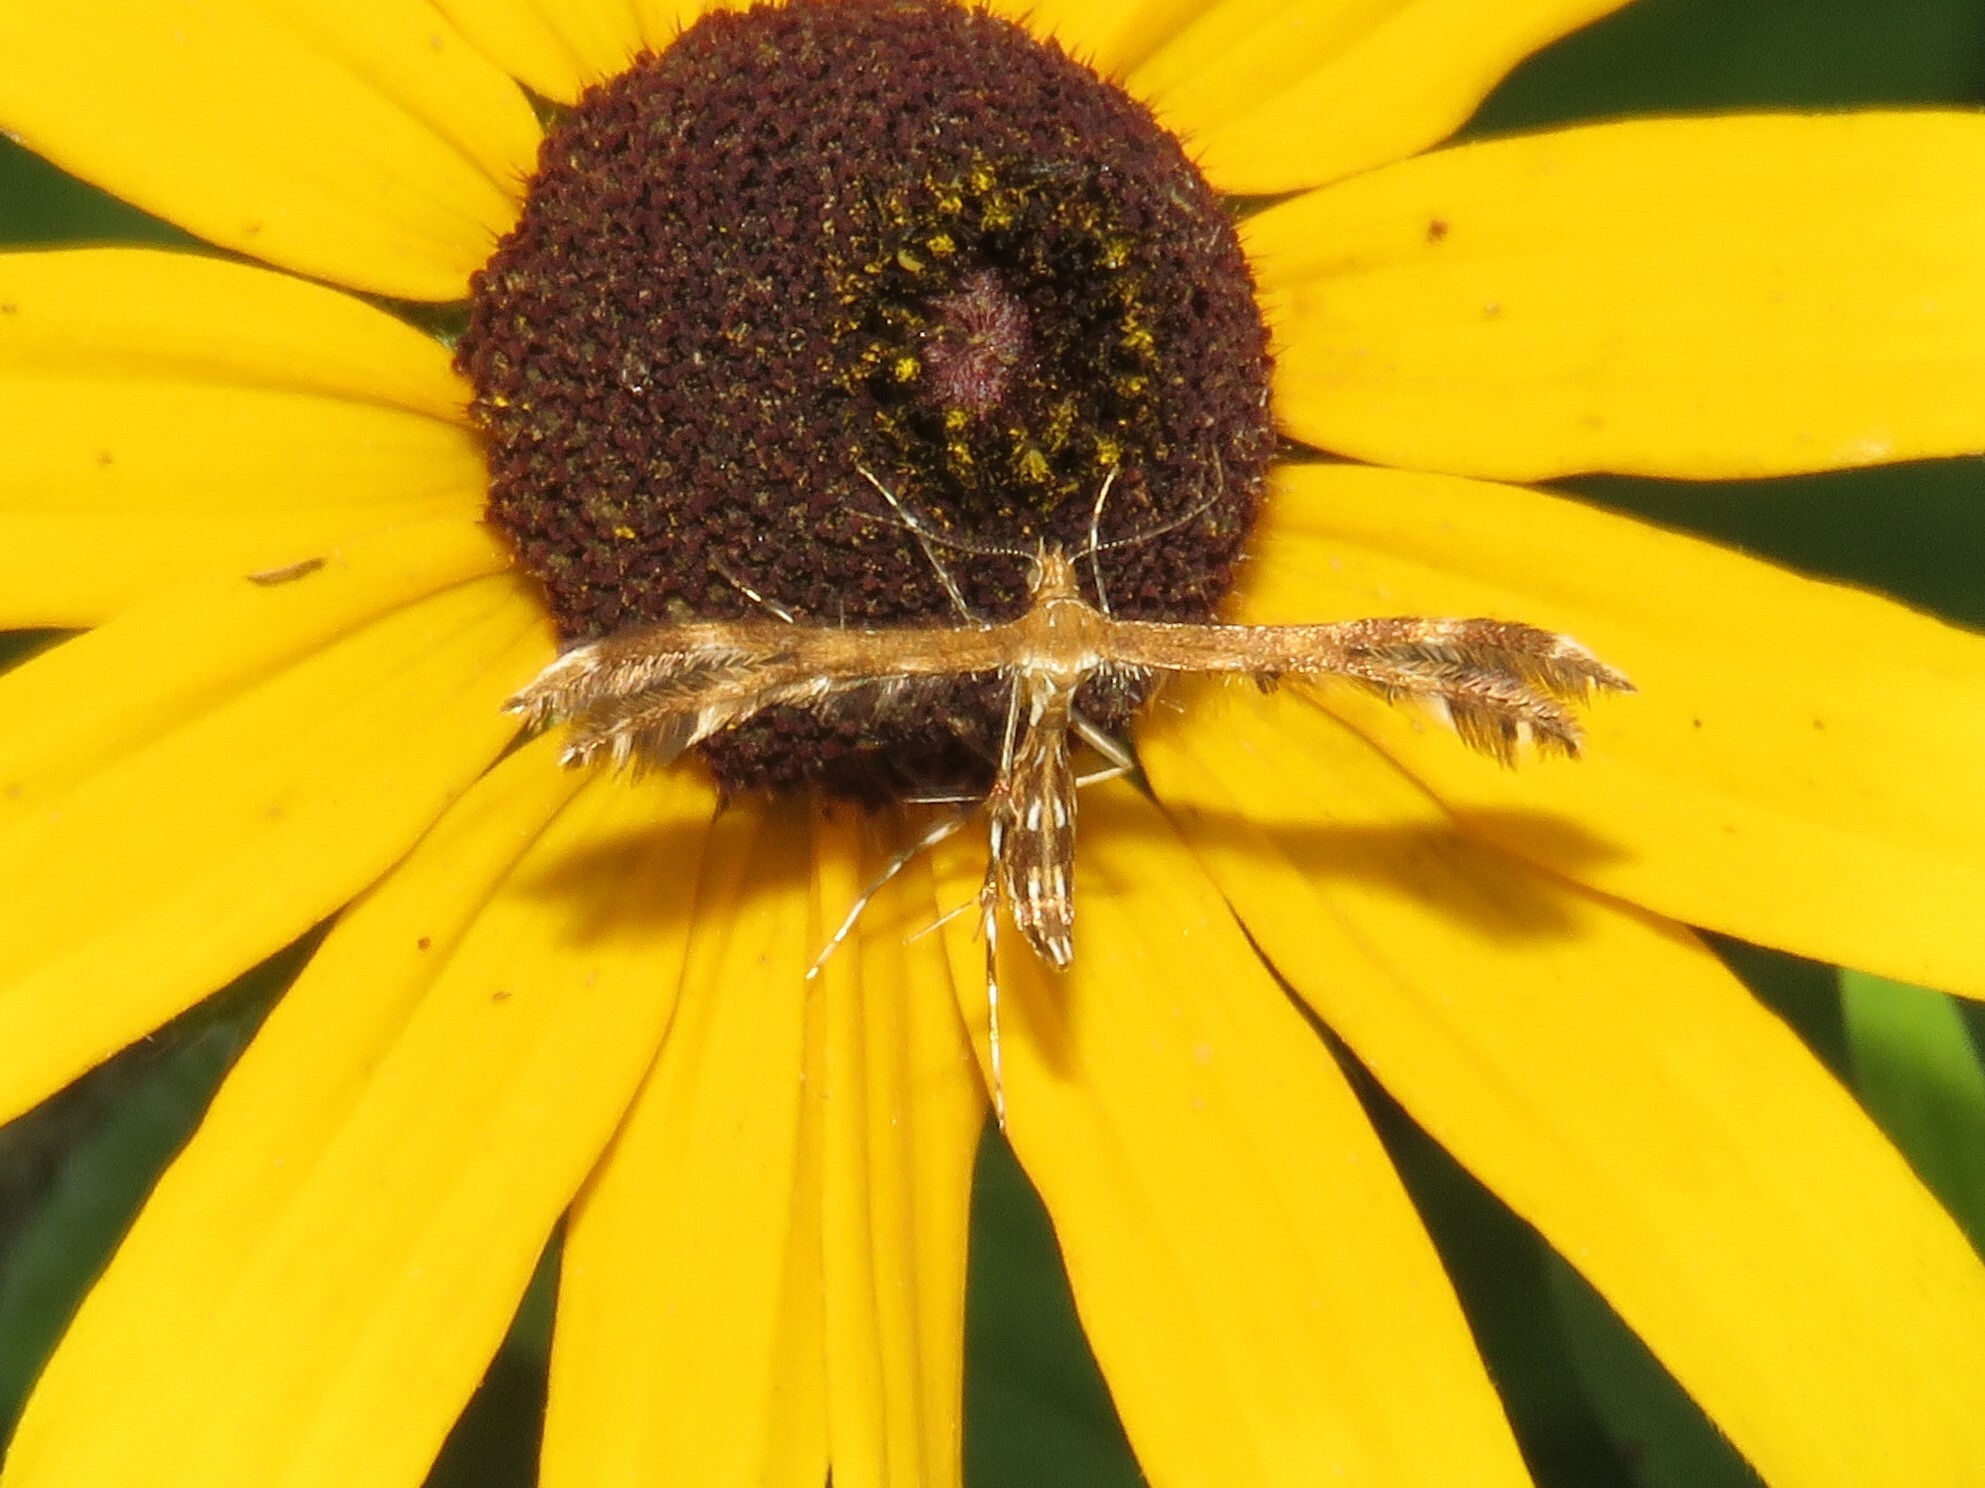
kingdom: Animalia
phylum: Arthropoda
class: Insecta
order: Lepidoptera
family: Pterophoridae
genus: Dejongia
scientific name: Dejongia lobidactylus
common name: Lobed plume moth
